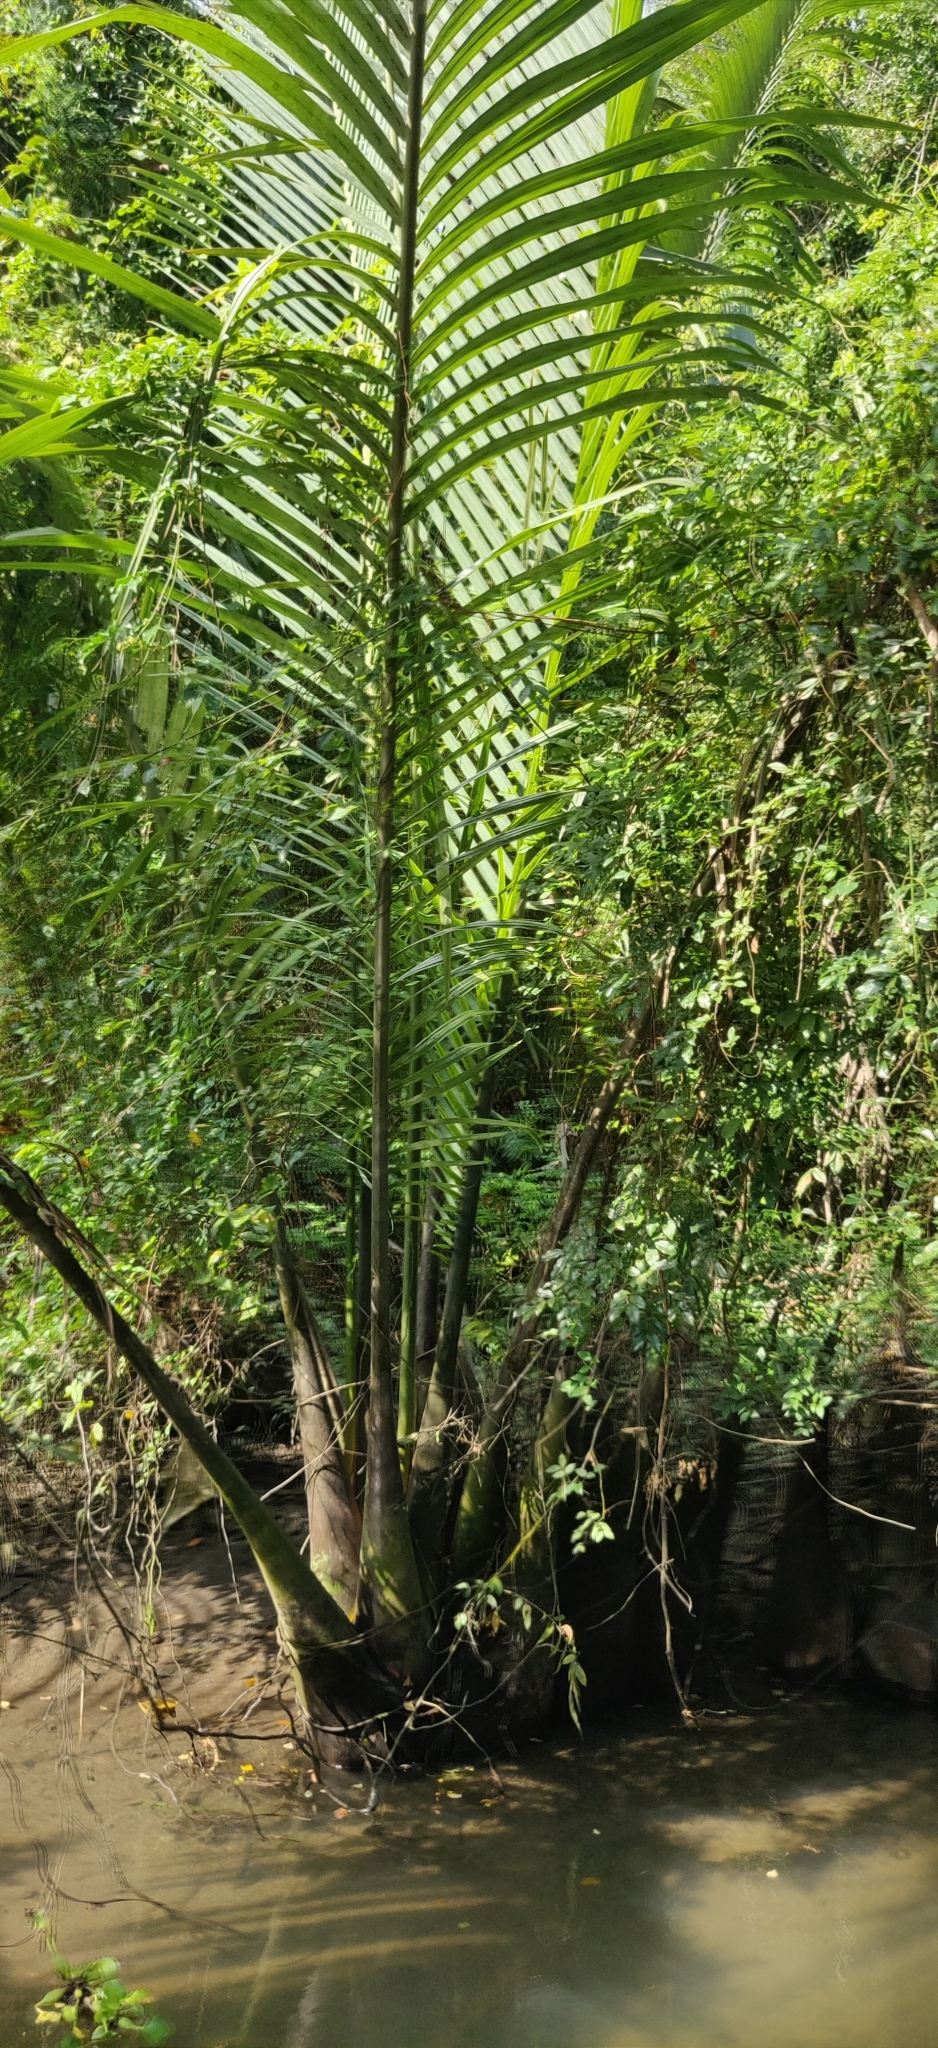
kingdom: Plantae
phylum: Tracheophyta
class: Liliopsida
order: Arecales
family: Arecaceae
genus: Nypa
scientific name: Nypa fruticans
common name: Mangrove palm
